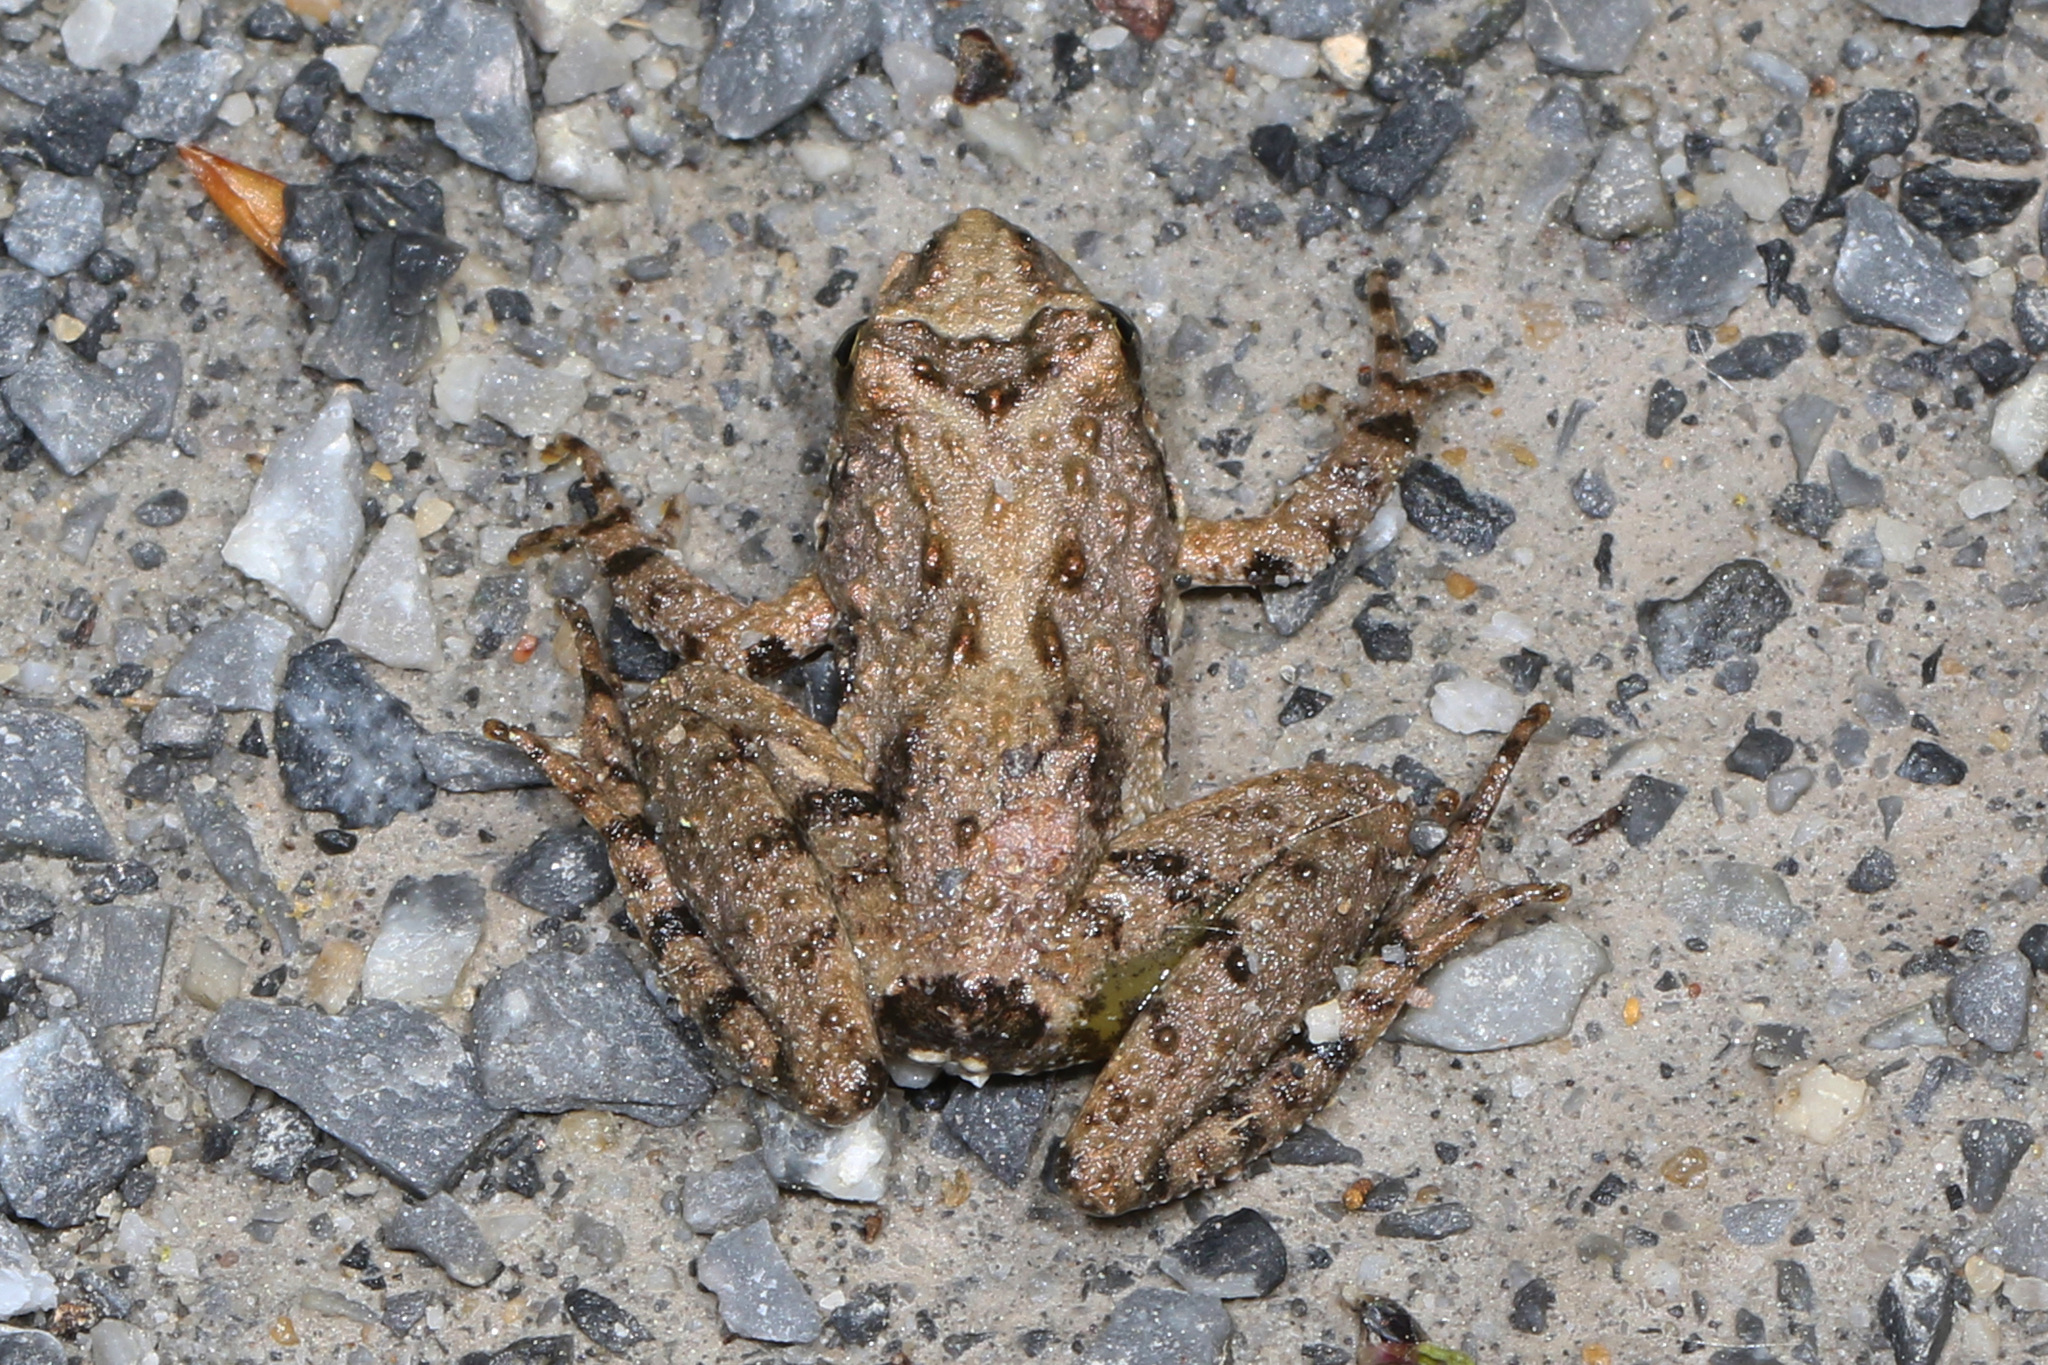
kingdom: Animalia
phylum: Chordata
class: Amphibia
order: Anura
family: Hylidae
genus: Acris
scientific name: Acris crepitans
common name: Northern cricket frog
